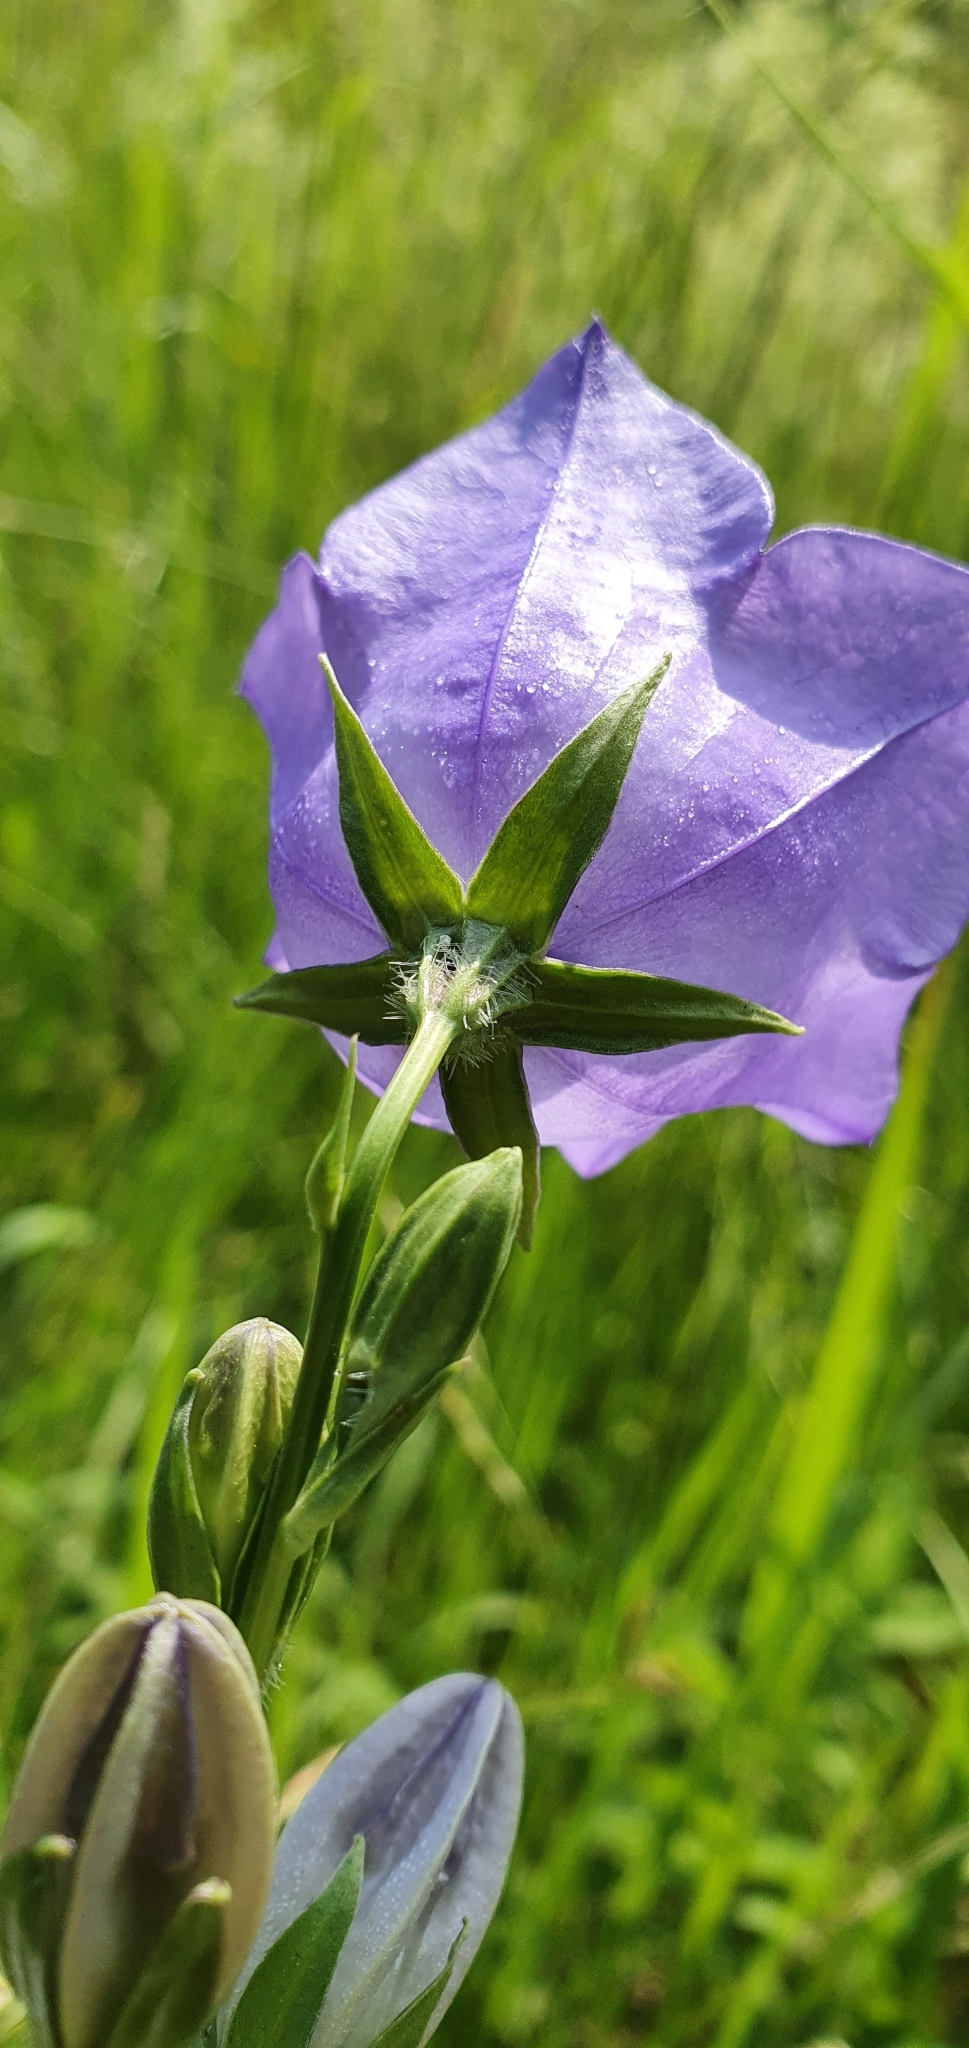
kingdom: Plantae
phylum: Tracheophyta
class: Magnoliopsida
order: Asterales
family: Campanulaceae
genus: Campanula
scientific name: Campanula persicifolia
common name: Peach-leaved bellflower
